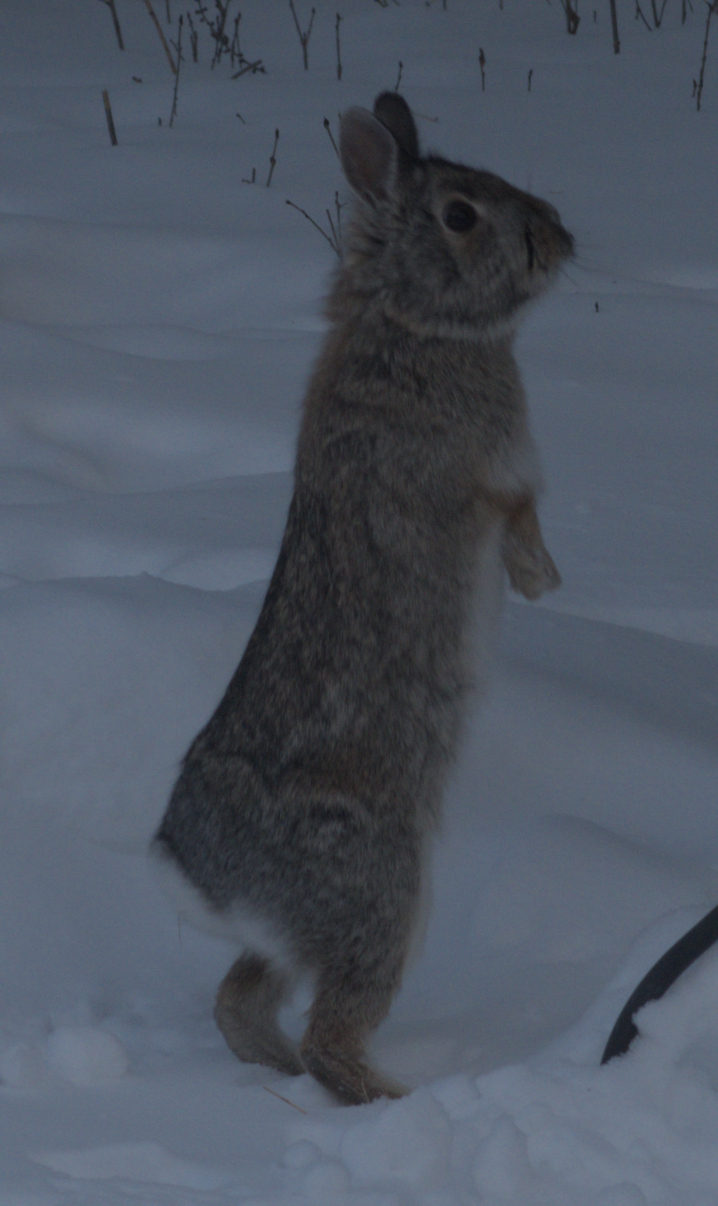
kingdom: Animalia
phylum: Chordata
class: Mammalia
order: Lagomorpha
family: Leporidae
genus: Sylvilagus
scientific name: Sylvilagus floridanus
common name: Eastern cottontail
